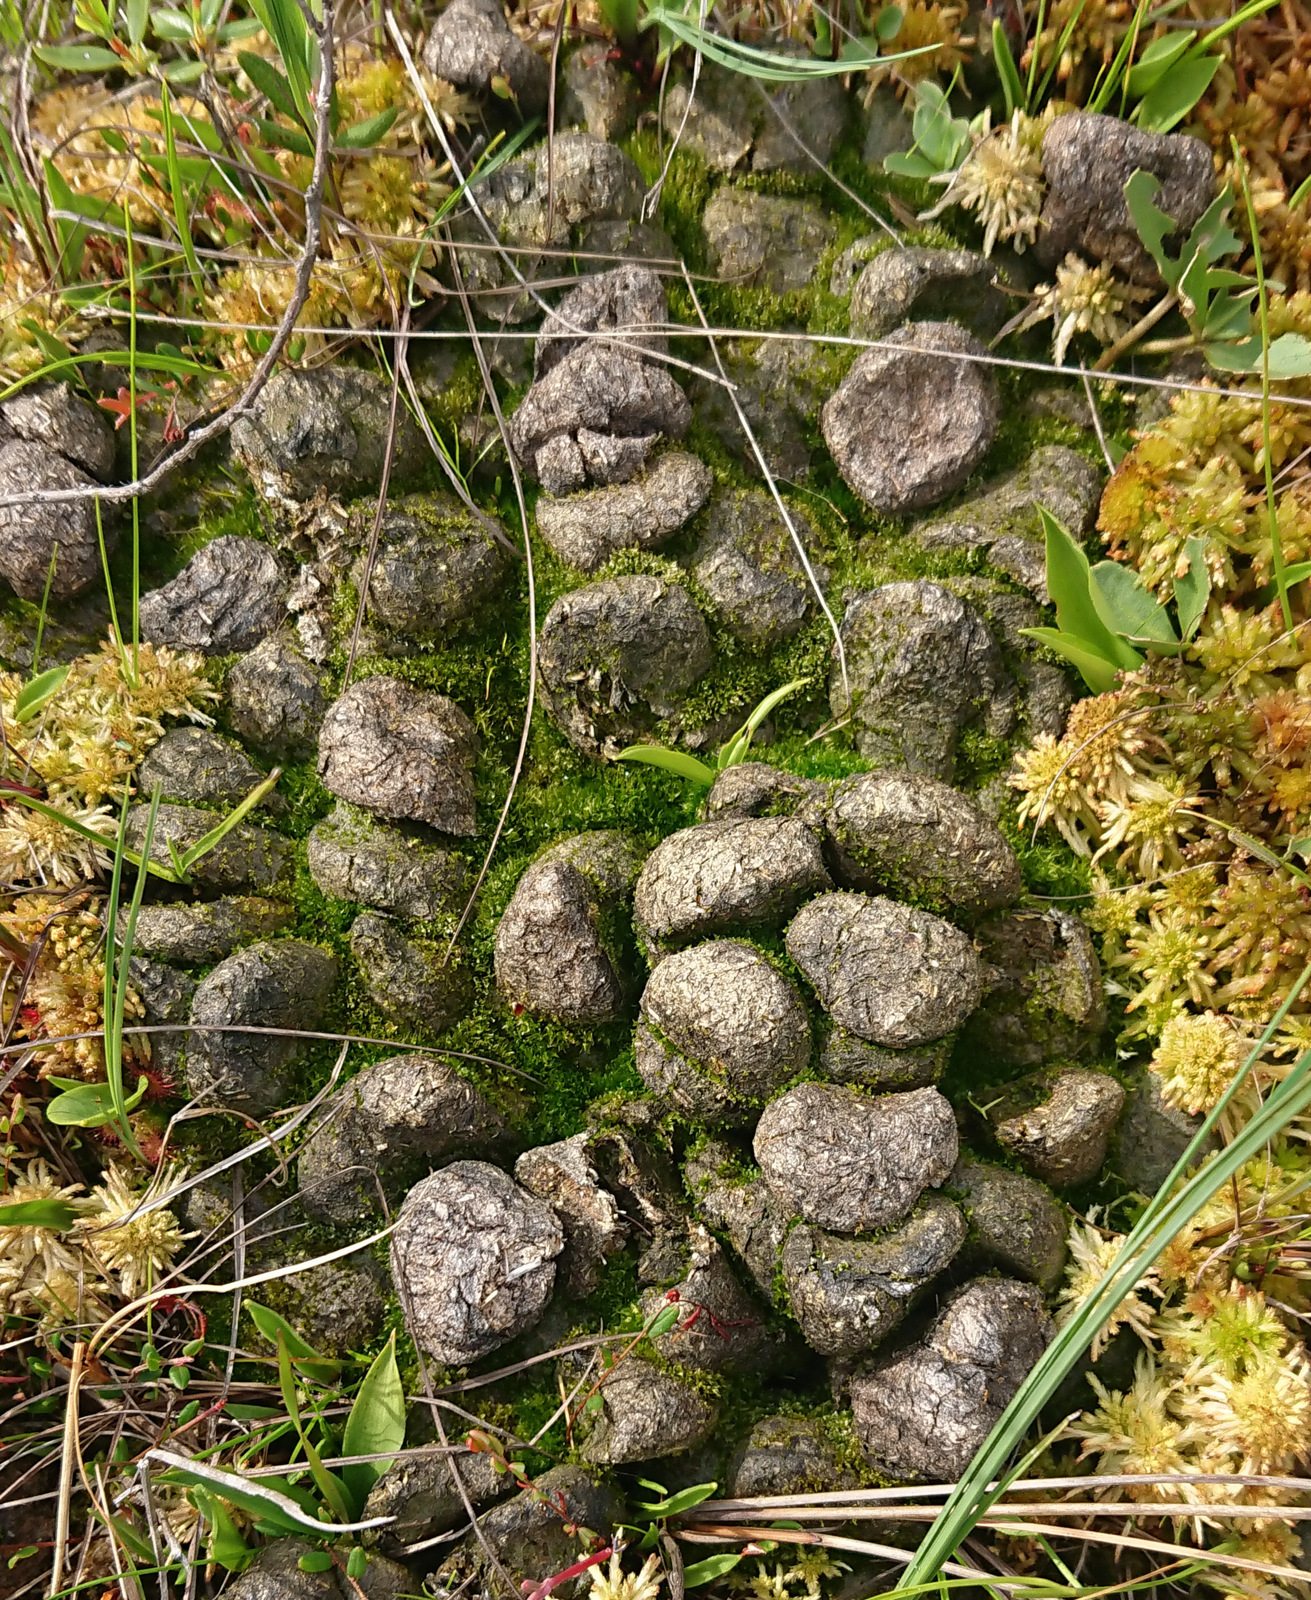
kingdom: Animalia
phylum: Chordata
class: Mammalia
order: Artiodactyla
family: Cervidae
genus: Alces
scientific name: Alces alces
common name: Moose
